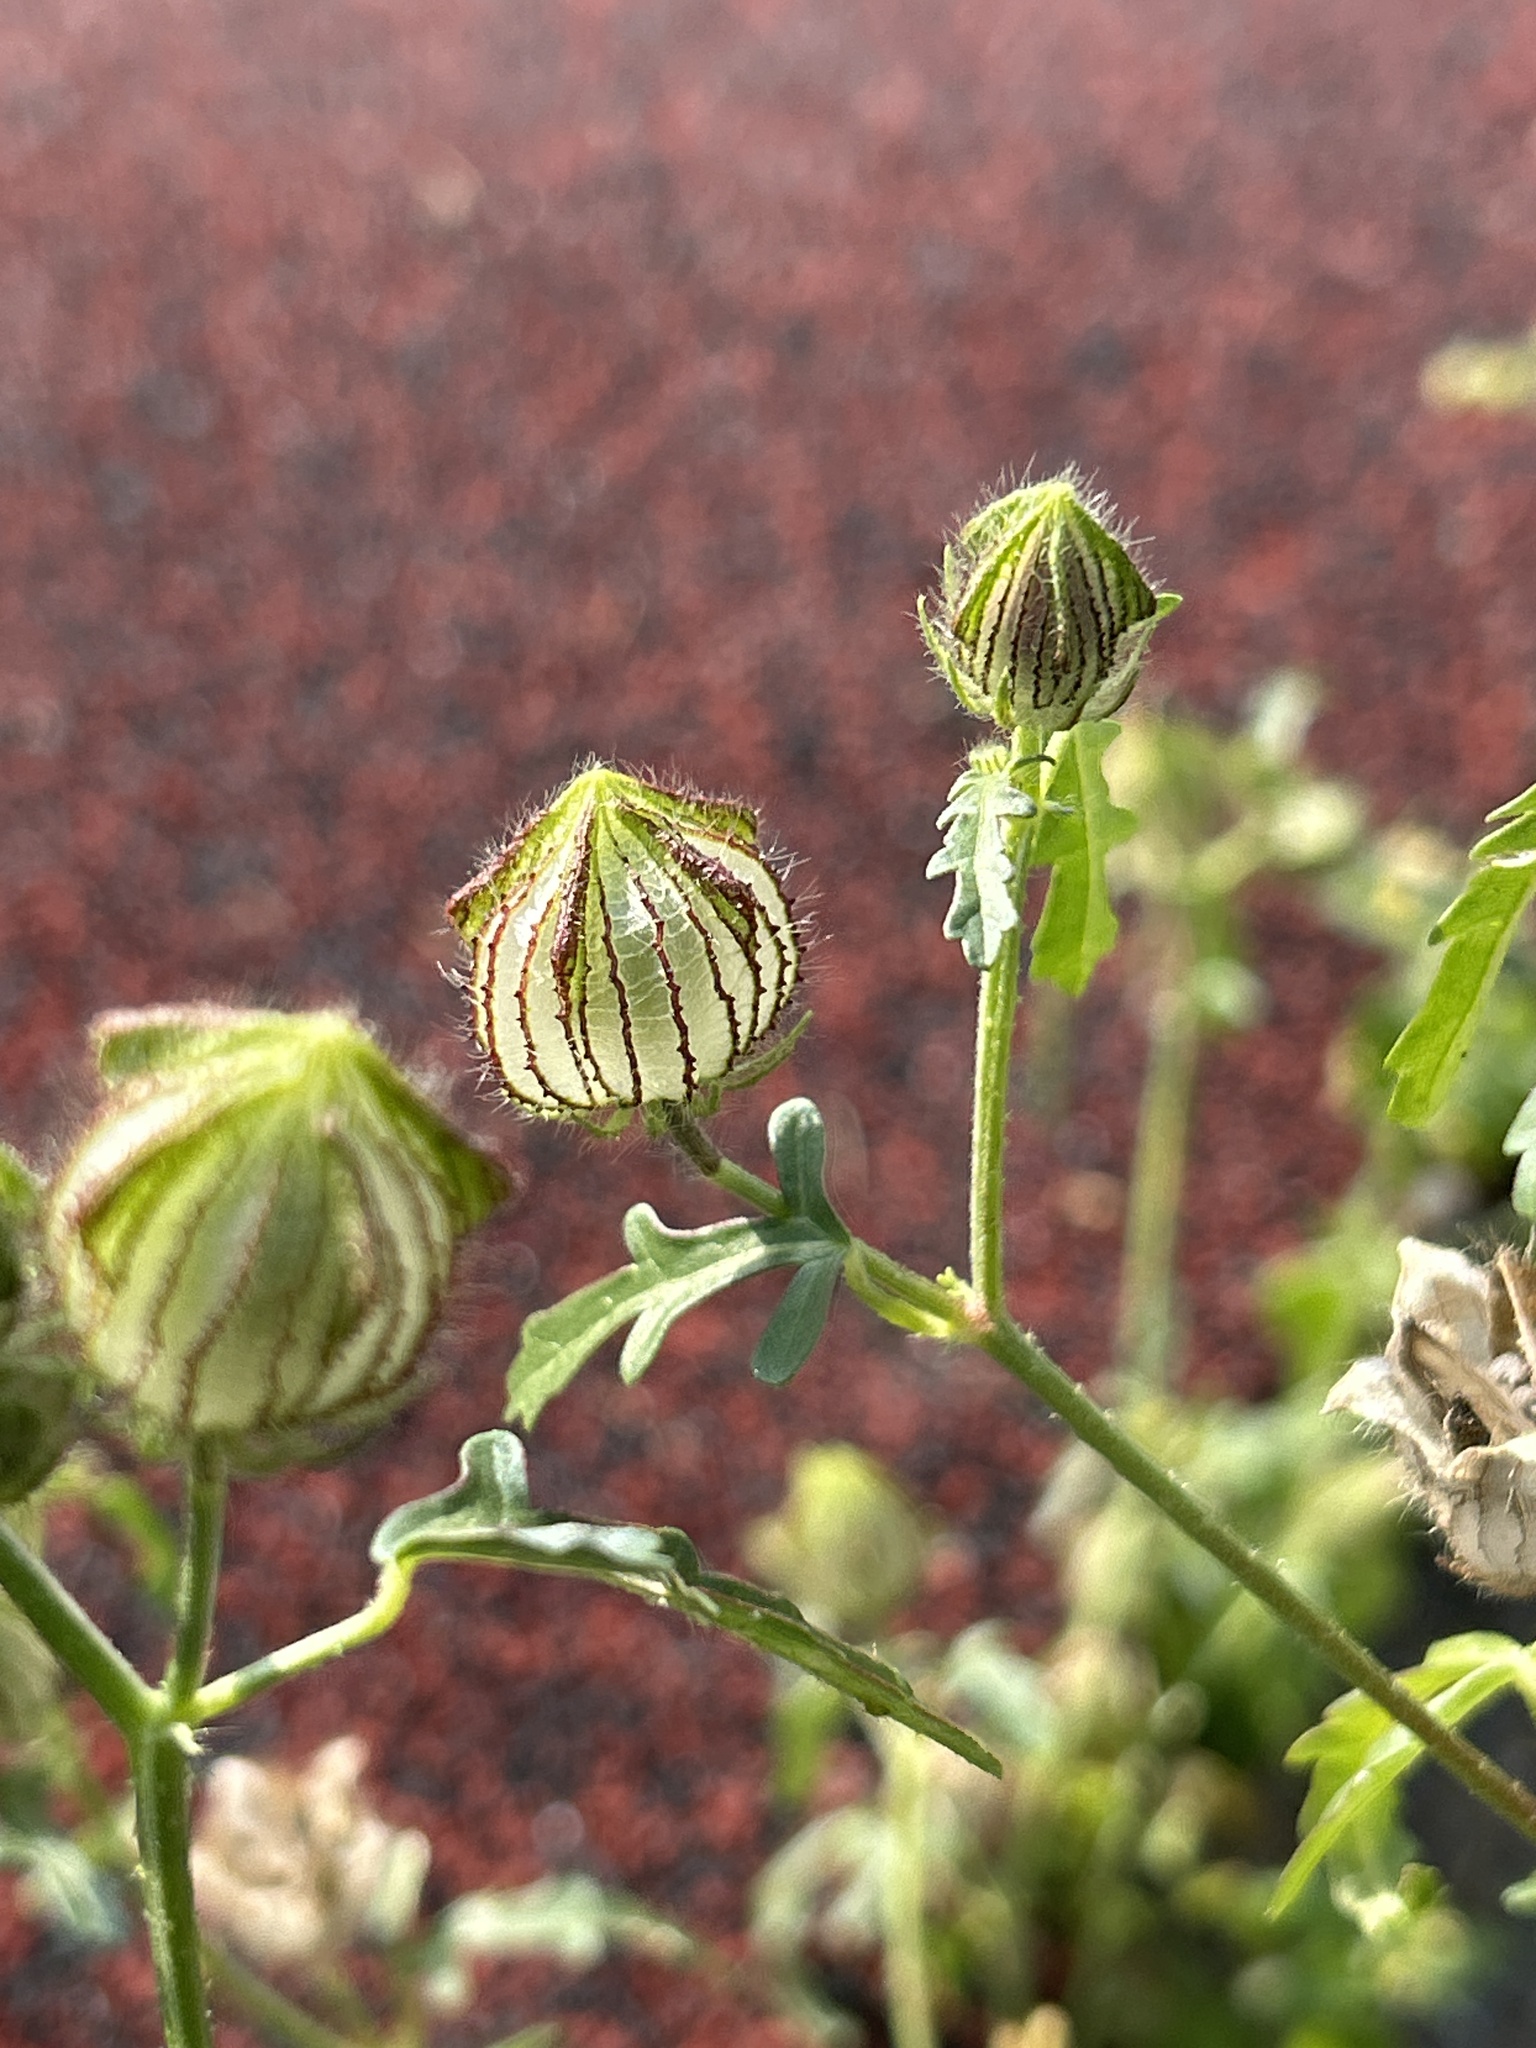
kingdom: Plantae
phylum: Tracheophyta
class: Magnoliopsida
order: Malvales
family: Malvaceae
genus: Hibiscus
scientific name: Hibiscus trionum
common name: Bladder ketmia
